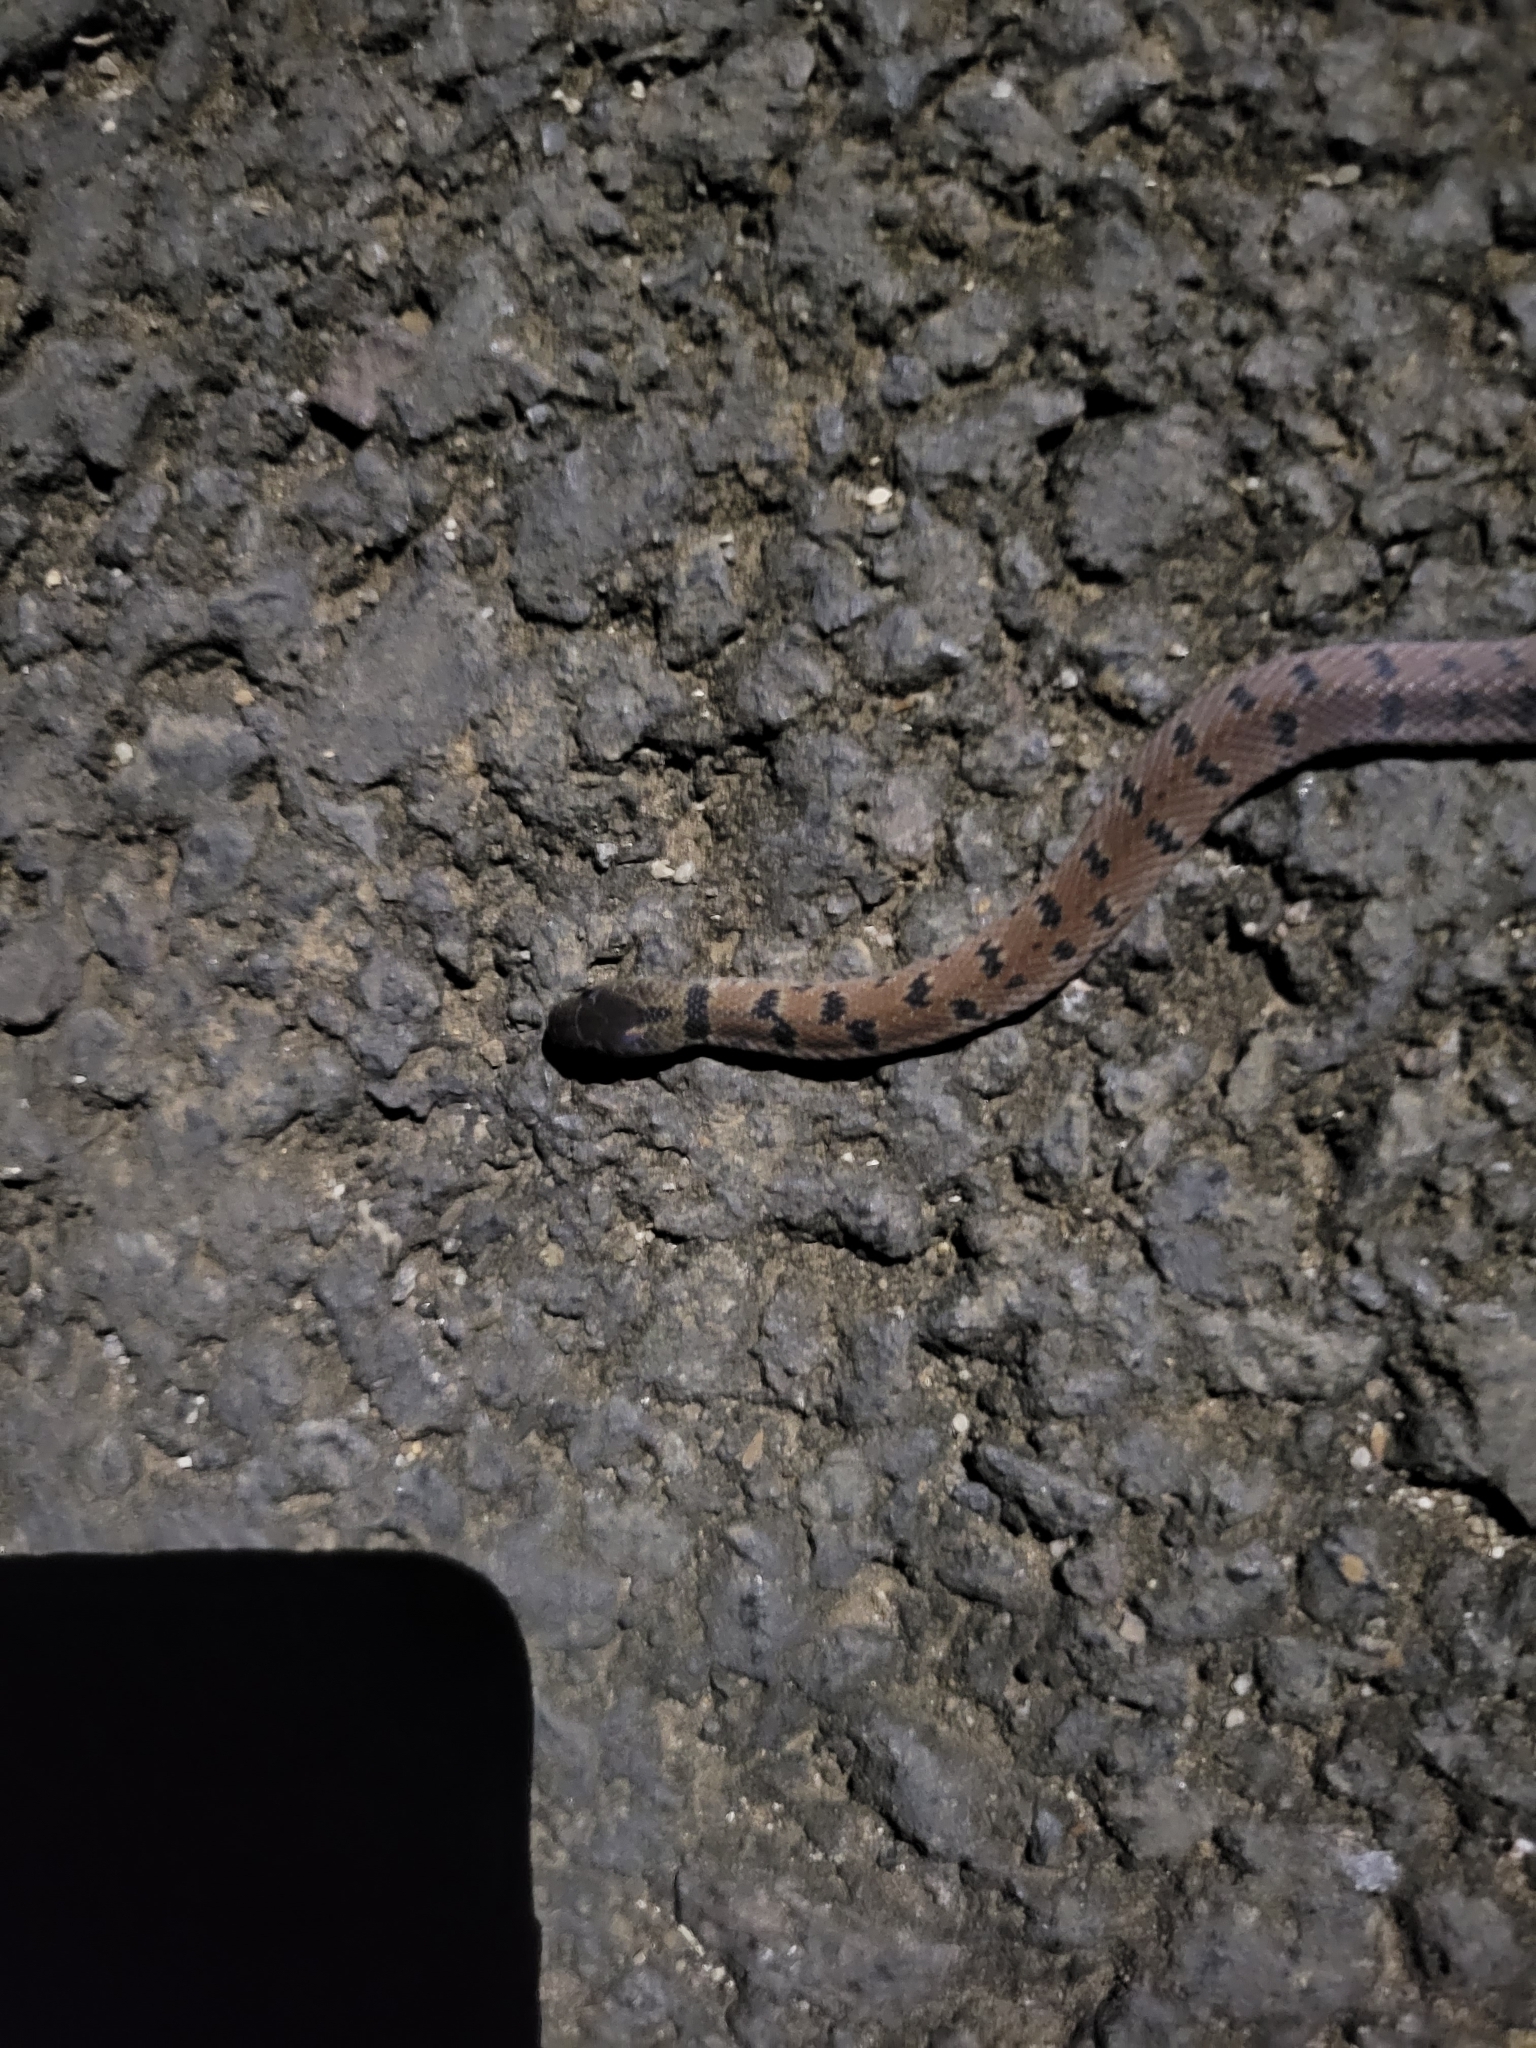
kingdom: Animalia
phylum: Chordata
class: Squamata
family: Colubridae
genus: Ninia
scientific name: Ninia maculata
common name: Spotted coffee snake
